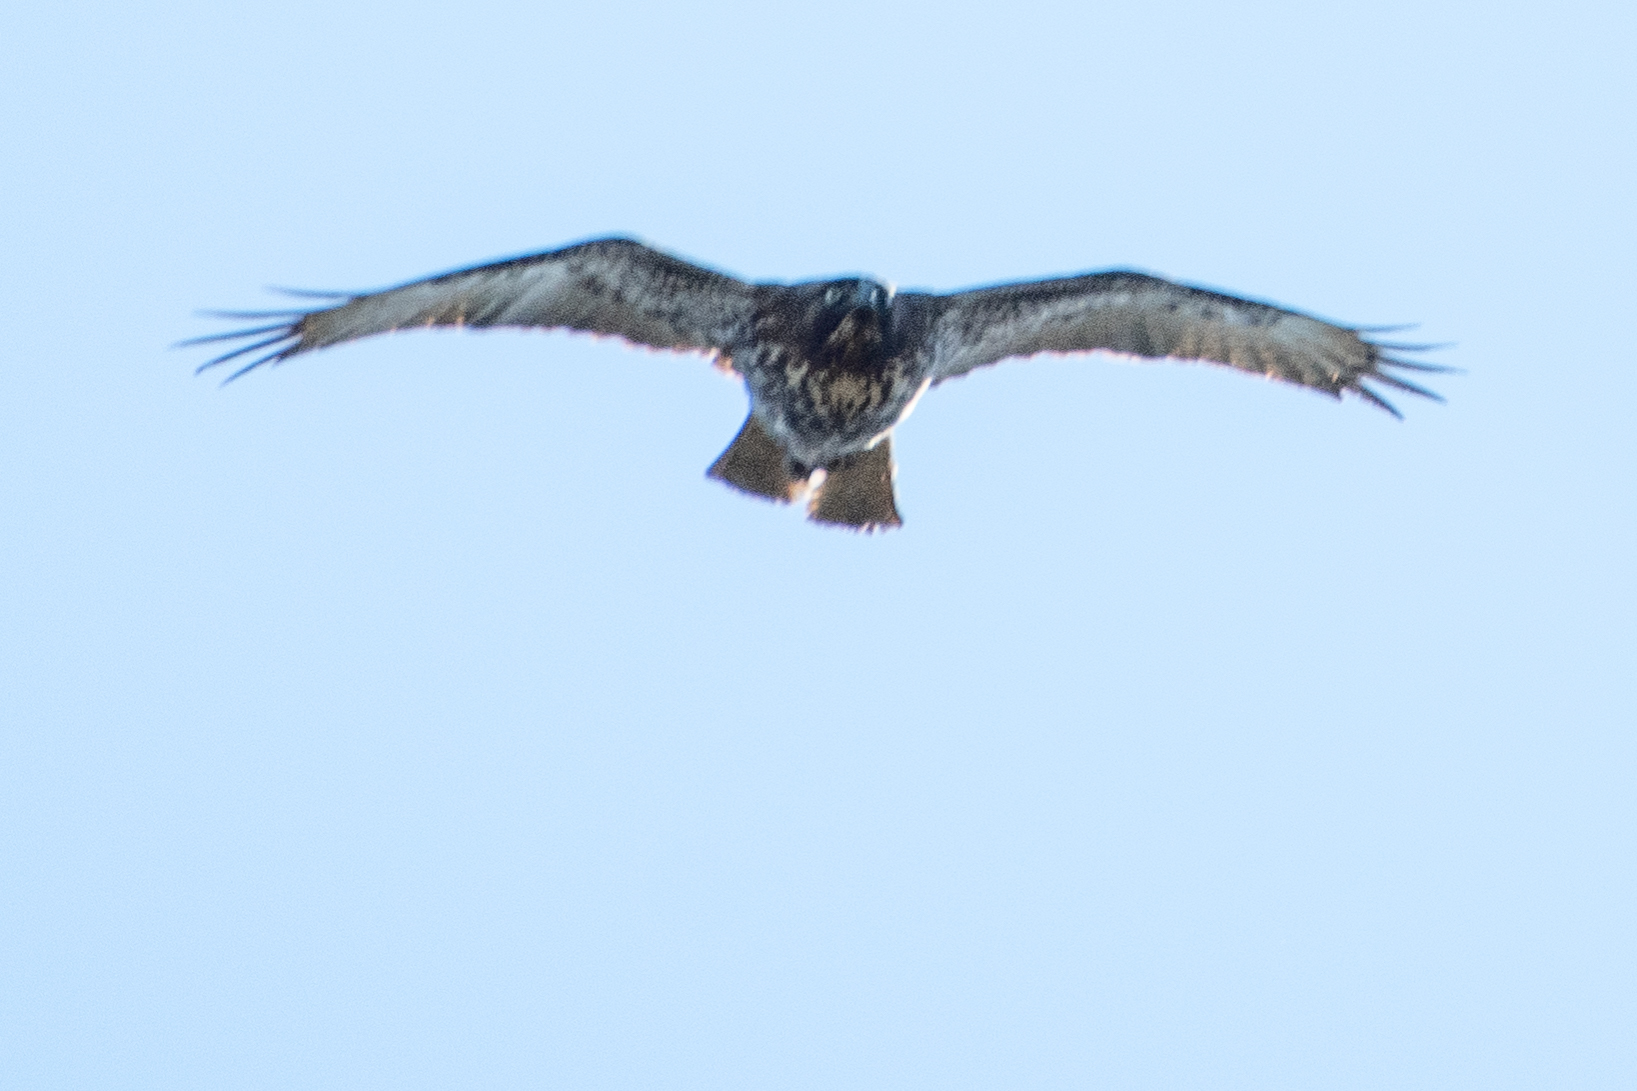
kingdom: Animalia
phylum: Chordata
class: Aves
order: Accipitriformes
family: Accipitridae
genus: Buteo
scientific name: Buteo jamaicensis
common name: Red-tailed hawk
